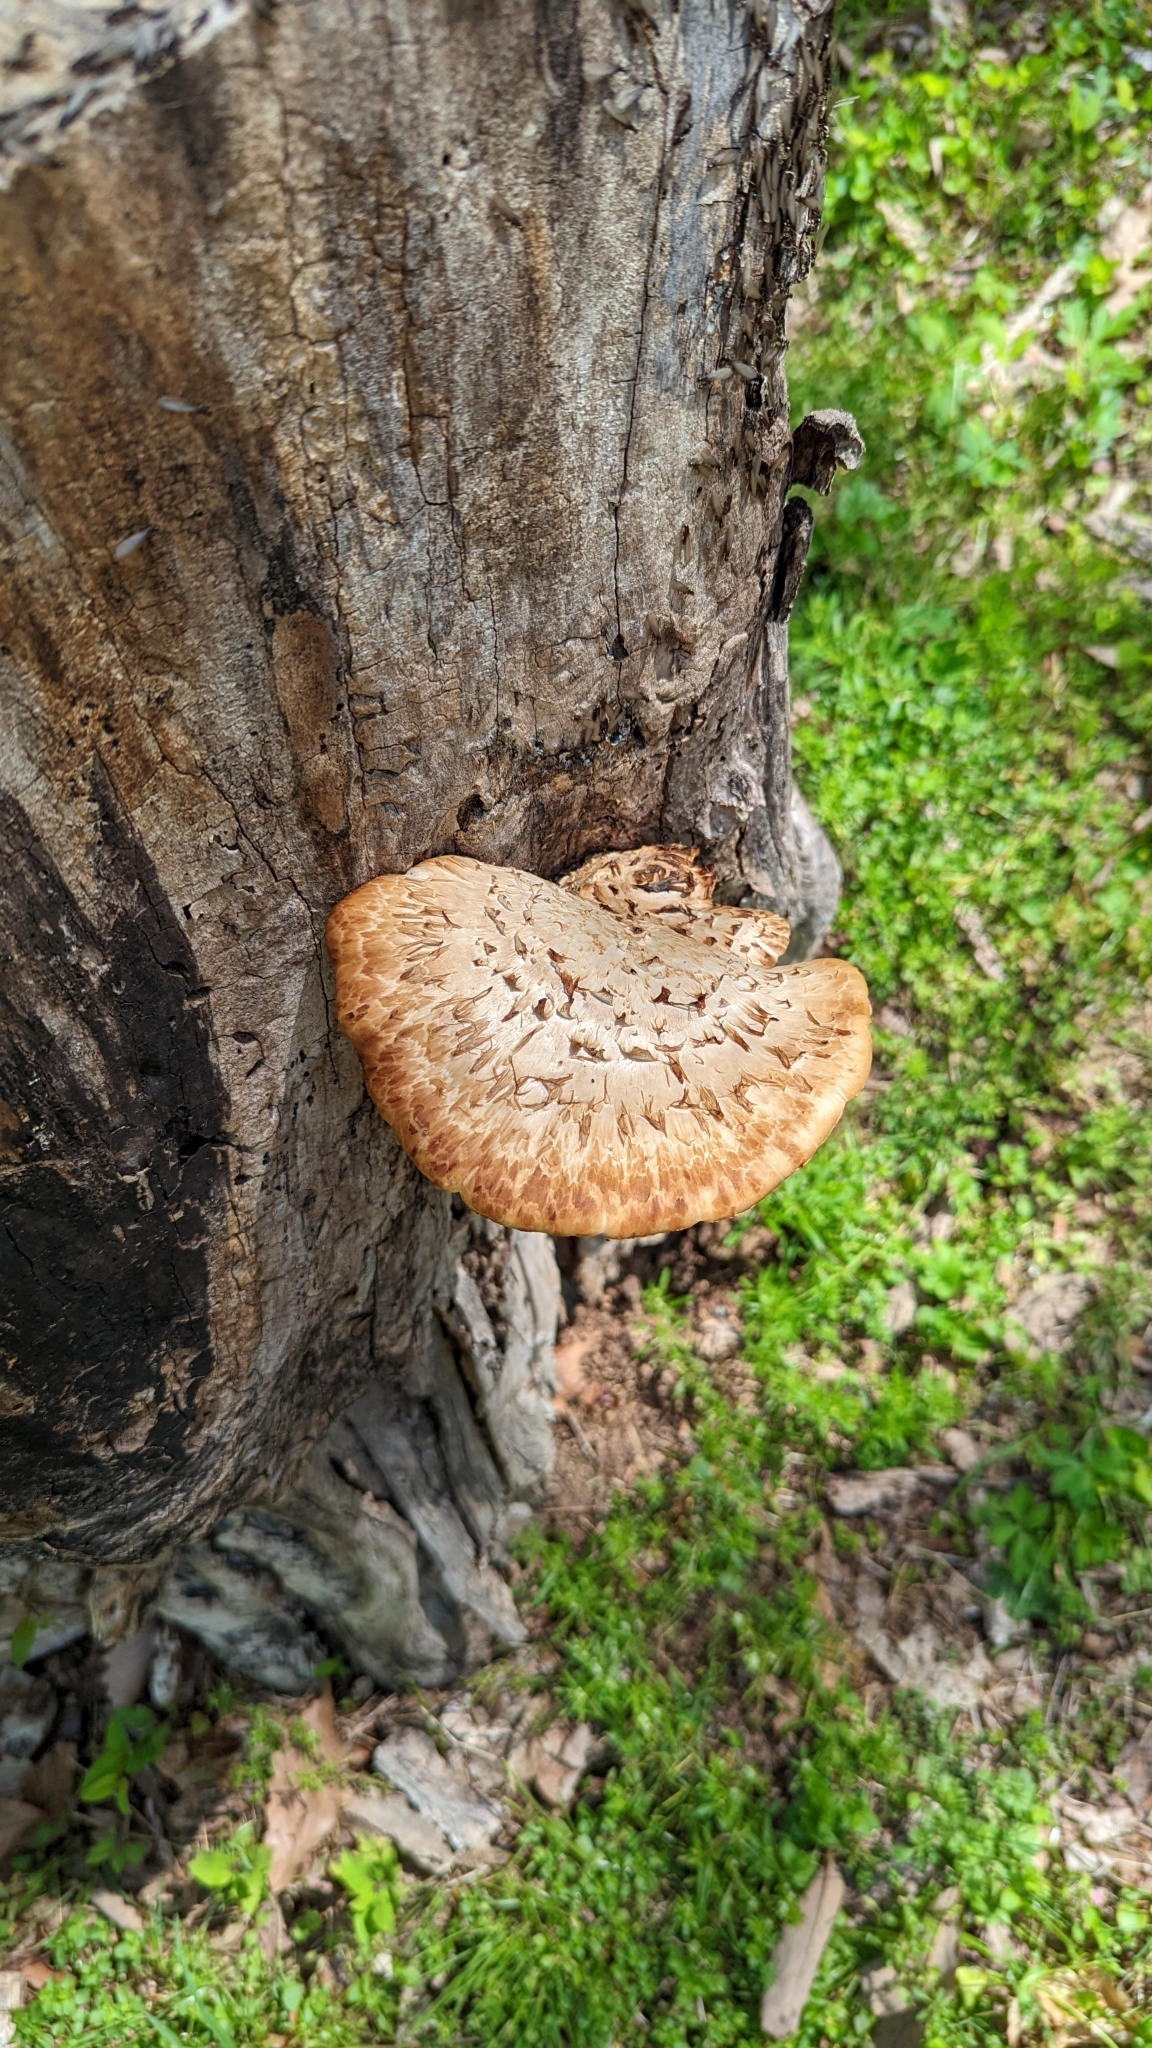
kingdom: Fungi
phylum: Basidiomycota
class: Agaricomycetes
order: Polyporales
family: Polyporaceae
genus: Cerioporus
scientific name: Cerioporus squamosus
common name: Dryad's saddle
